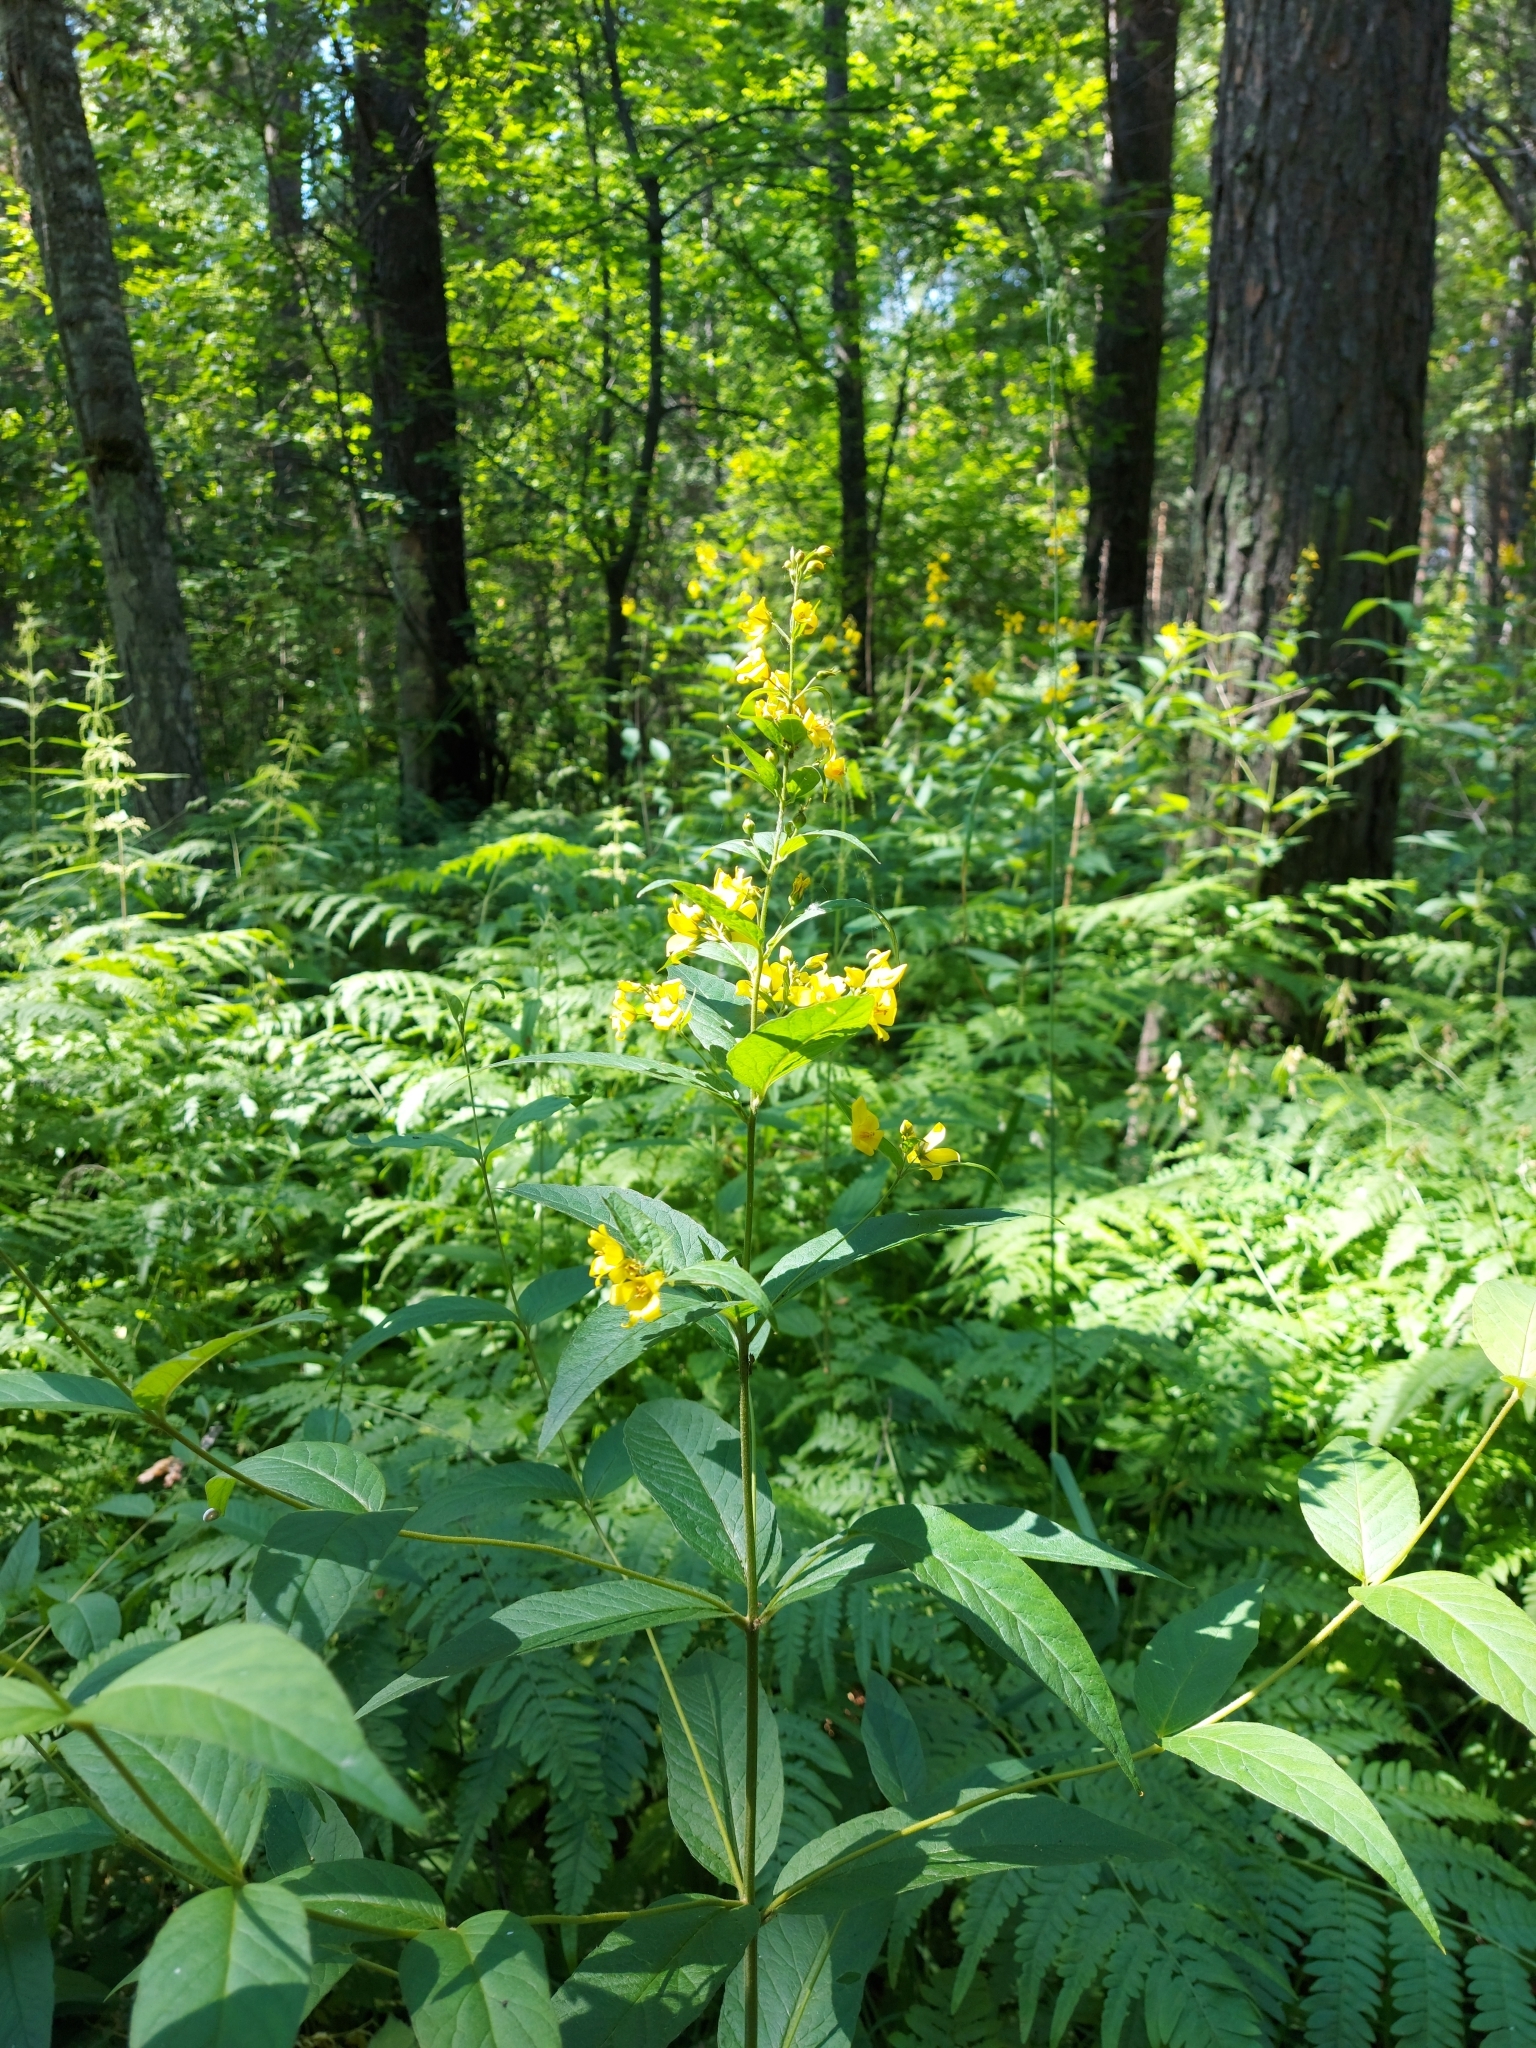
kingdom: Plantae
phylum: Tracheophyta
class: Magnoliopsida
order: Ericales
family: Primulaceae
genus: Lysimachia
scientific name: Lysimachia vulgaris
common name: Yellow loosestrife
